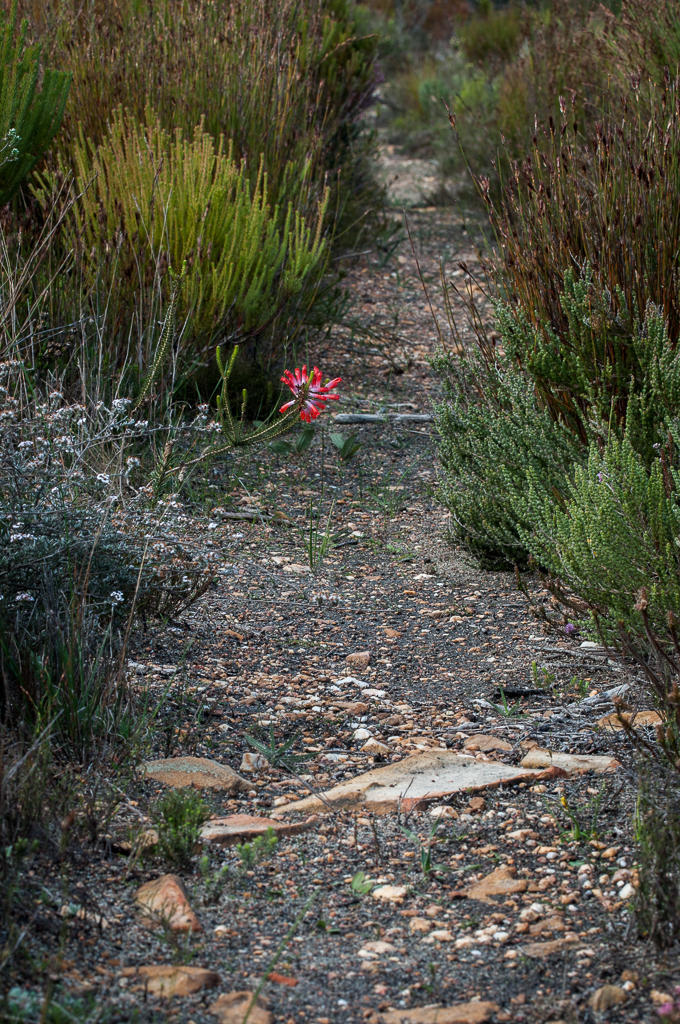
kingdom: Plantae
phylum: Tracheophyta
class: Magnoliopsida
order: Ericales
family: Ericaceae
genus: Erica
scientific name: Erica regia
